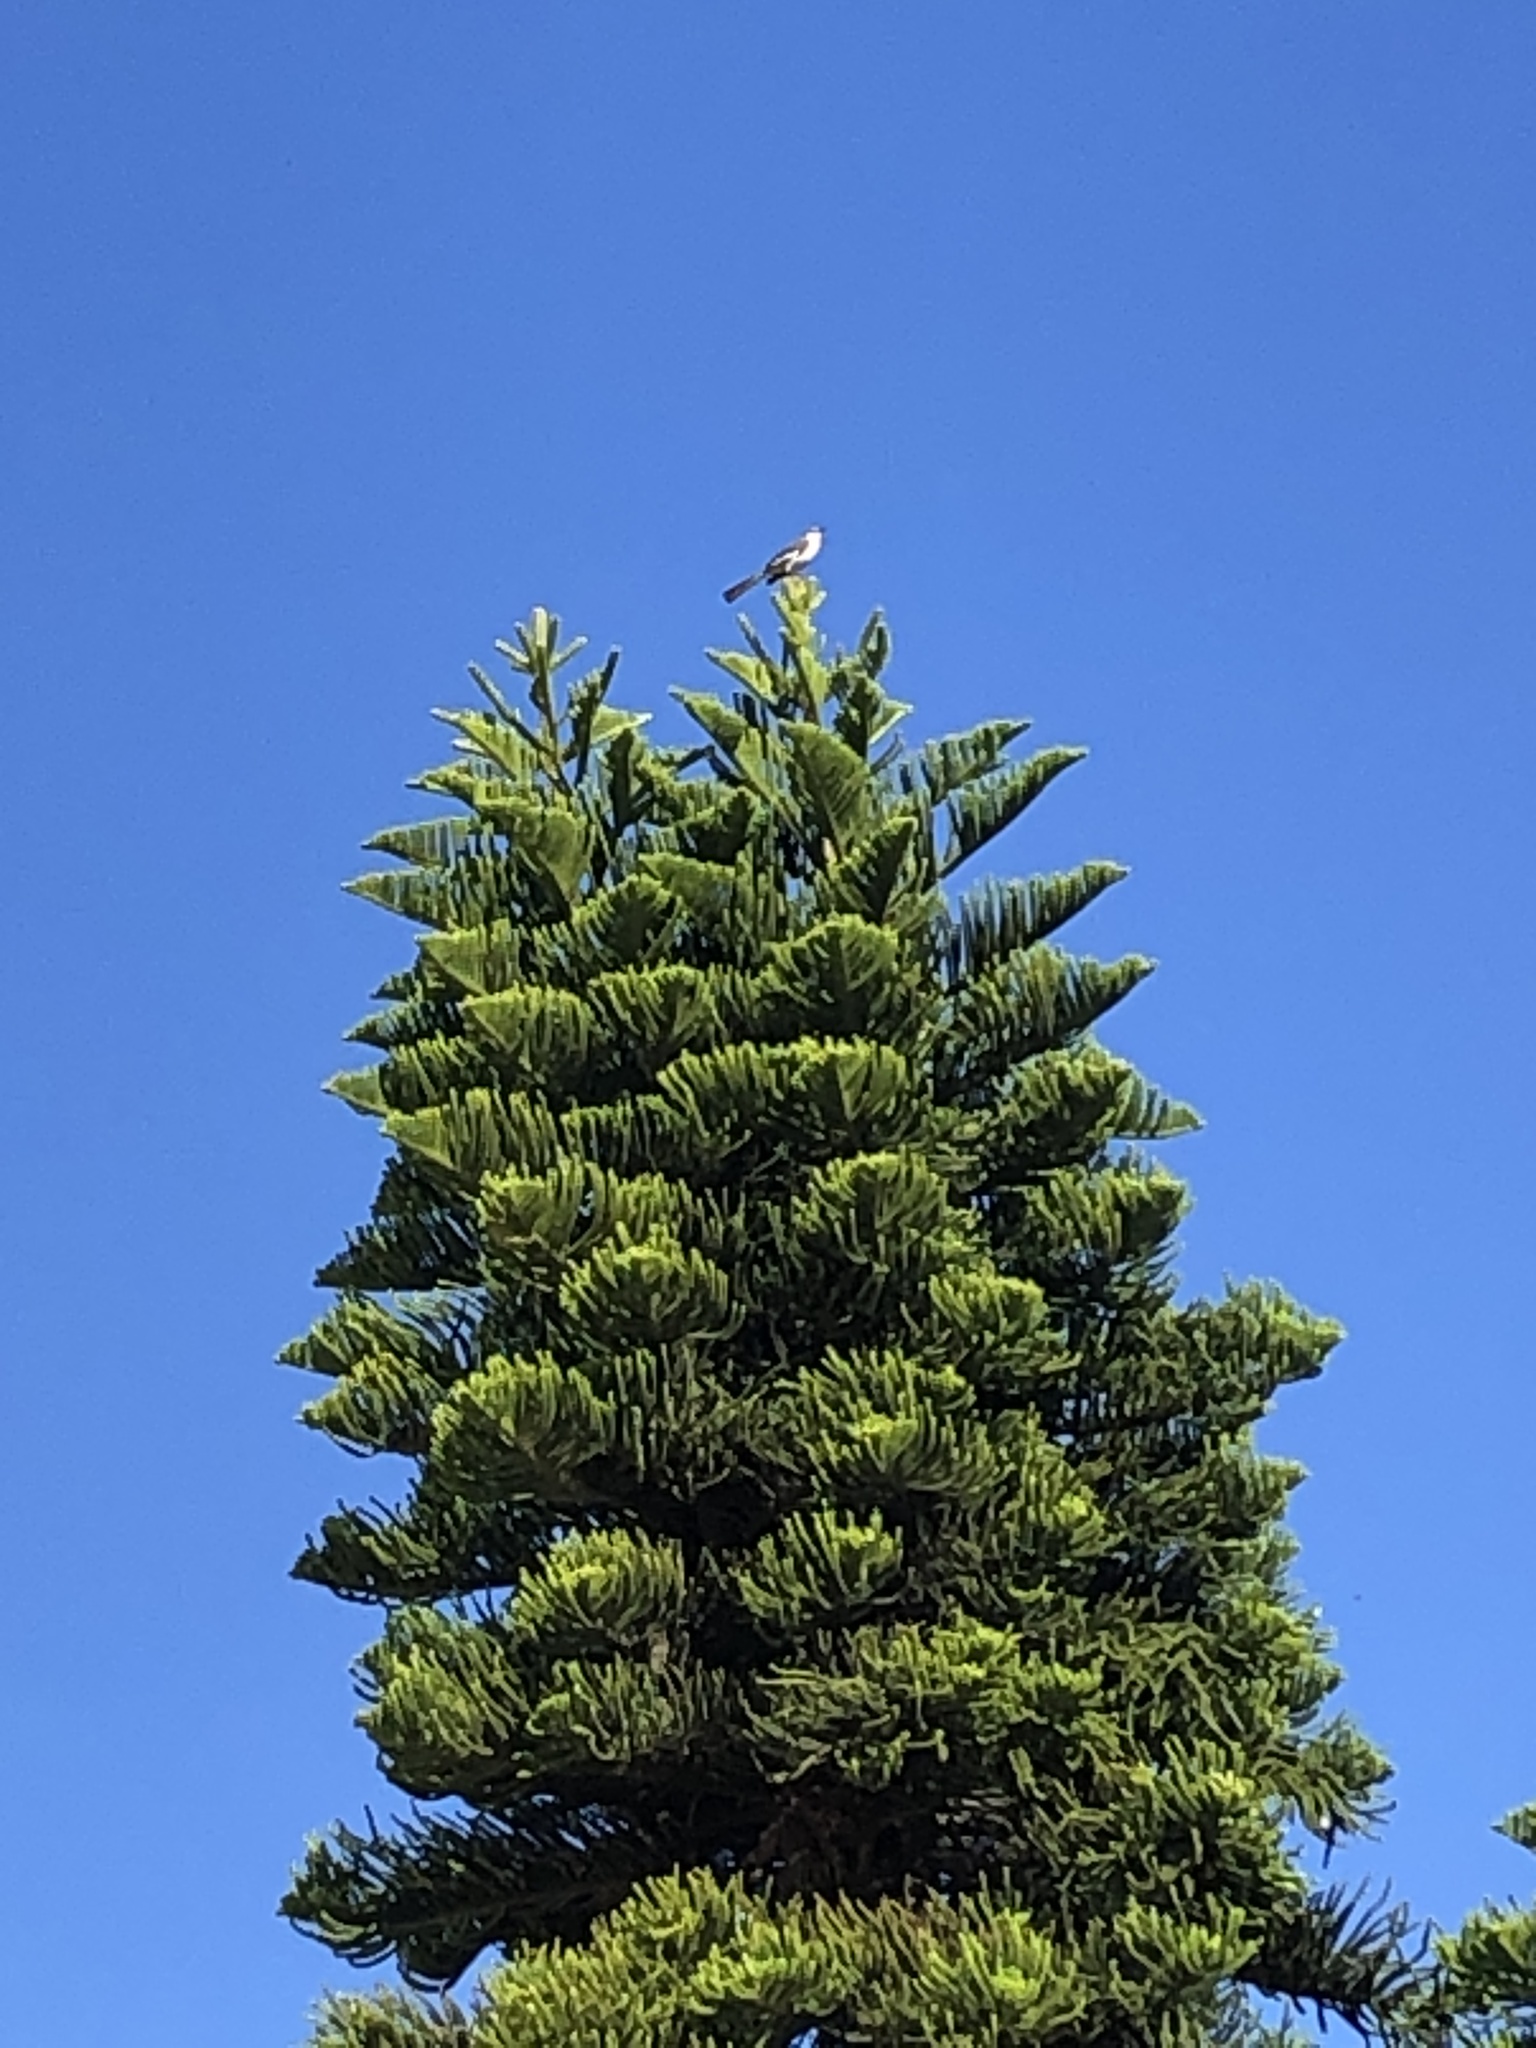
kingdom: Animalia
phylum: Chordata
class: Aves
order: Passeriformes
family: Mimidae
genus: Mimus
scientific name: Mimus polyglottos
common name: Northern mockingbird
